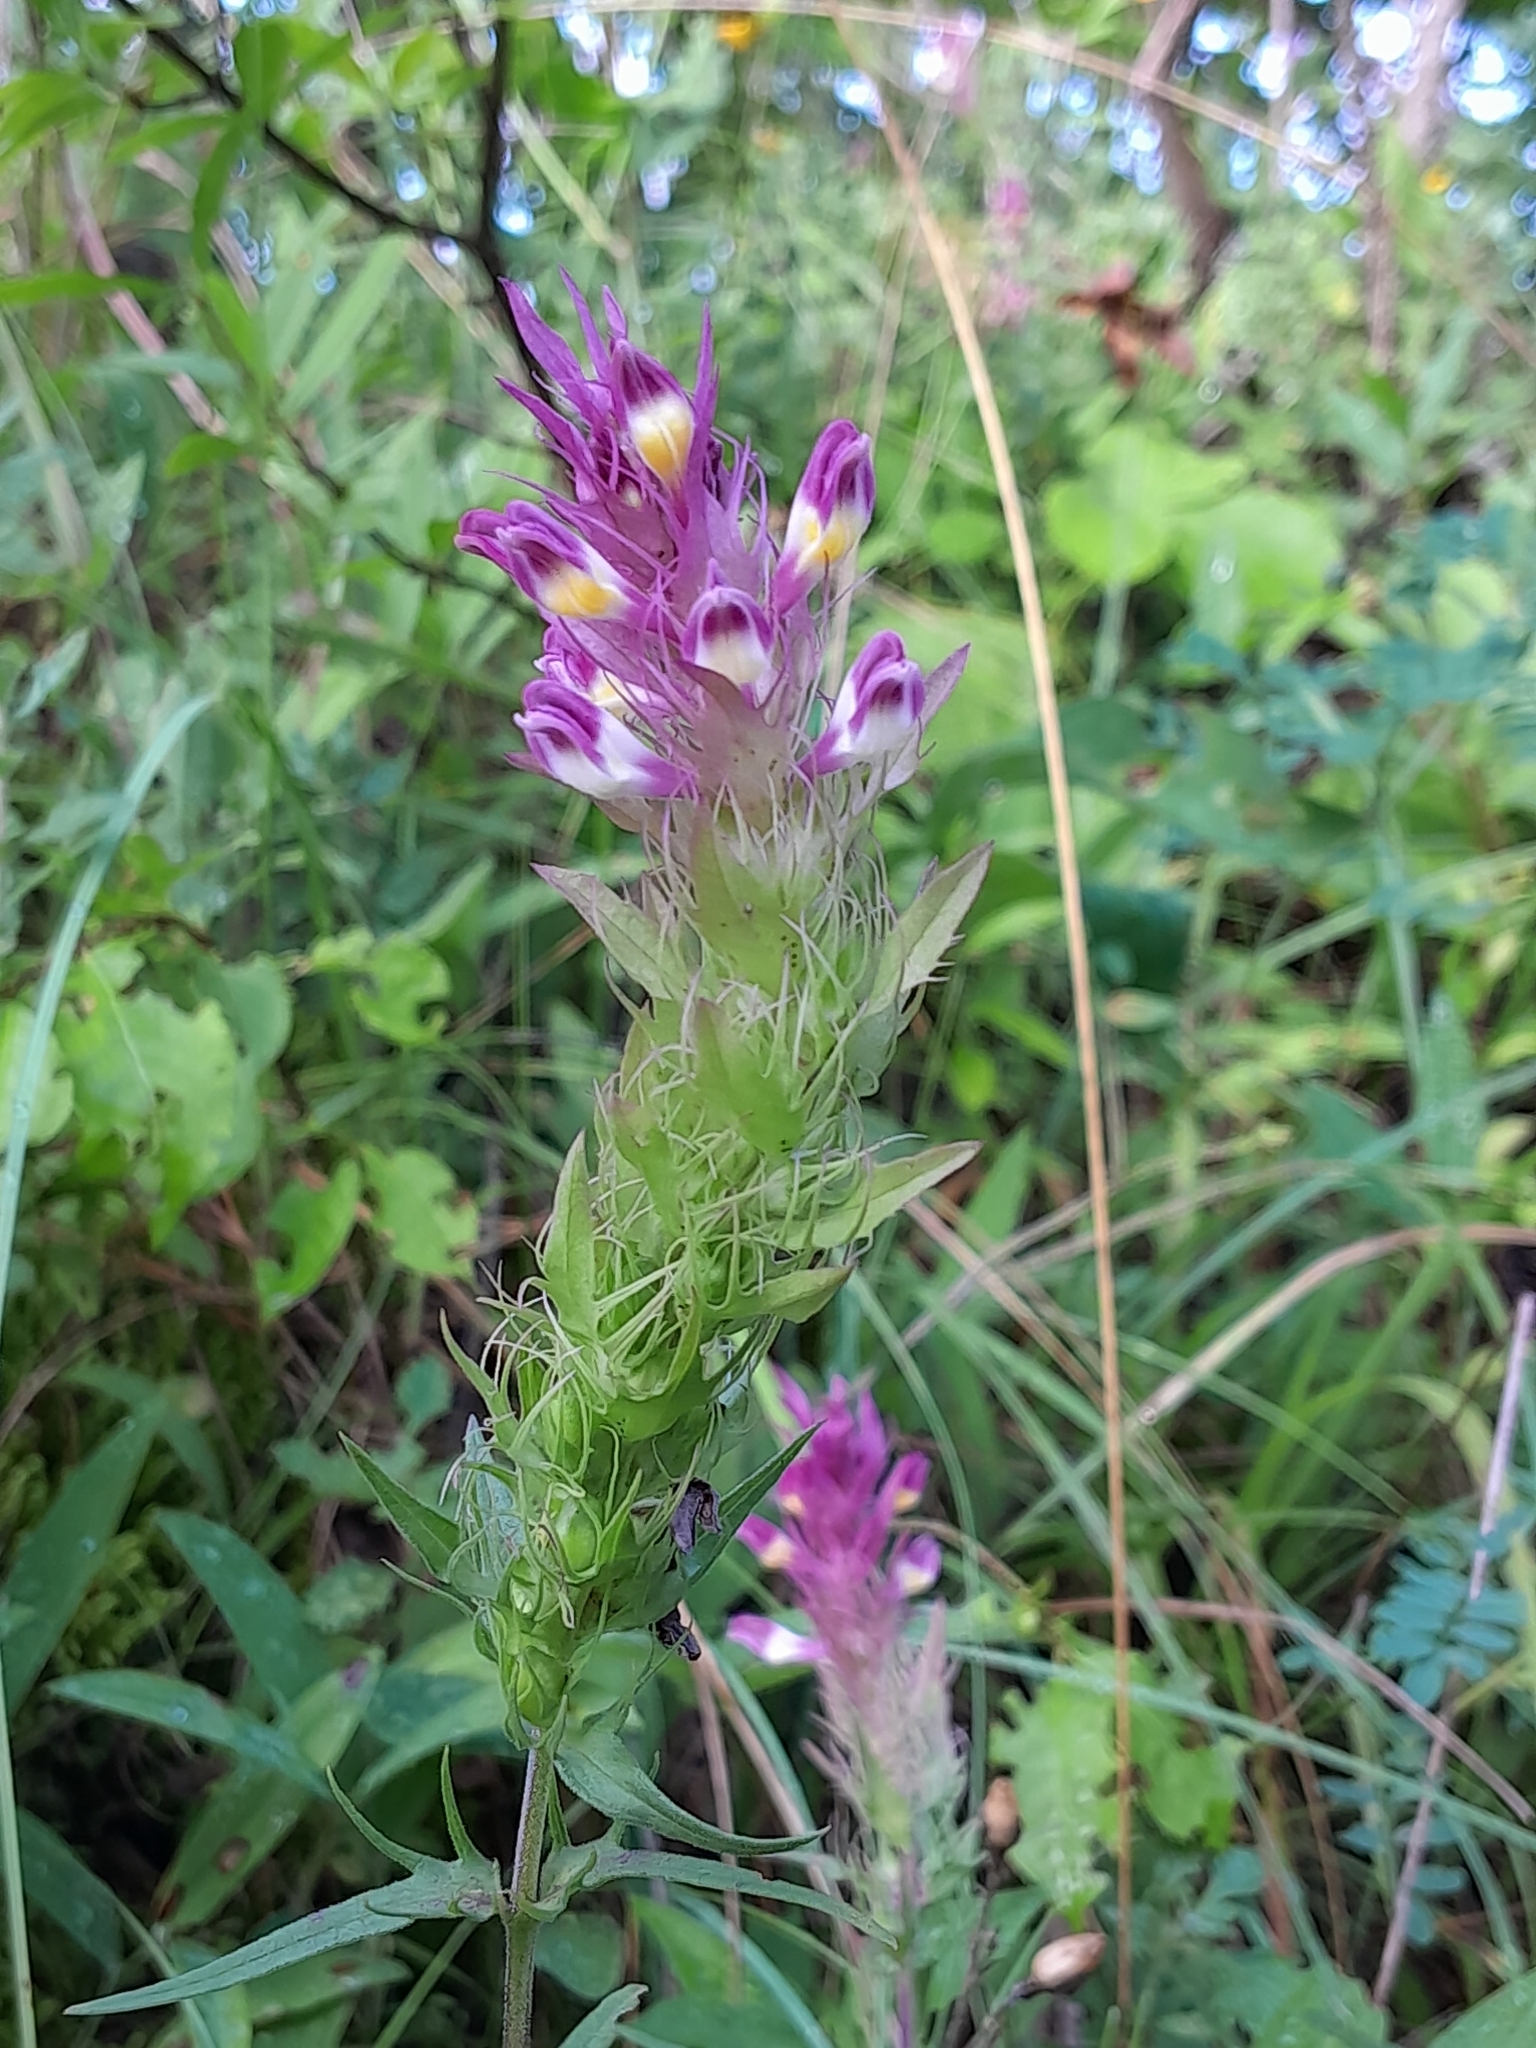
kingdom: Plantae
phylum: Tracheophyta
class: Magnoliopsida
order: Lamiales
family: Orobanchaceae
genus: Melampyrum
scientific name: Melampyrum arvense
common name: Field cow-wheat
